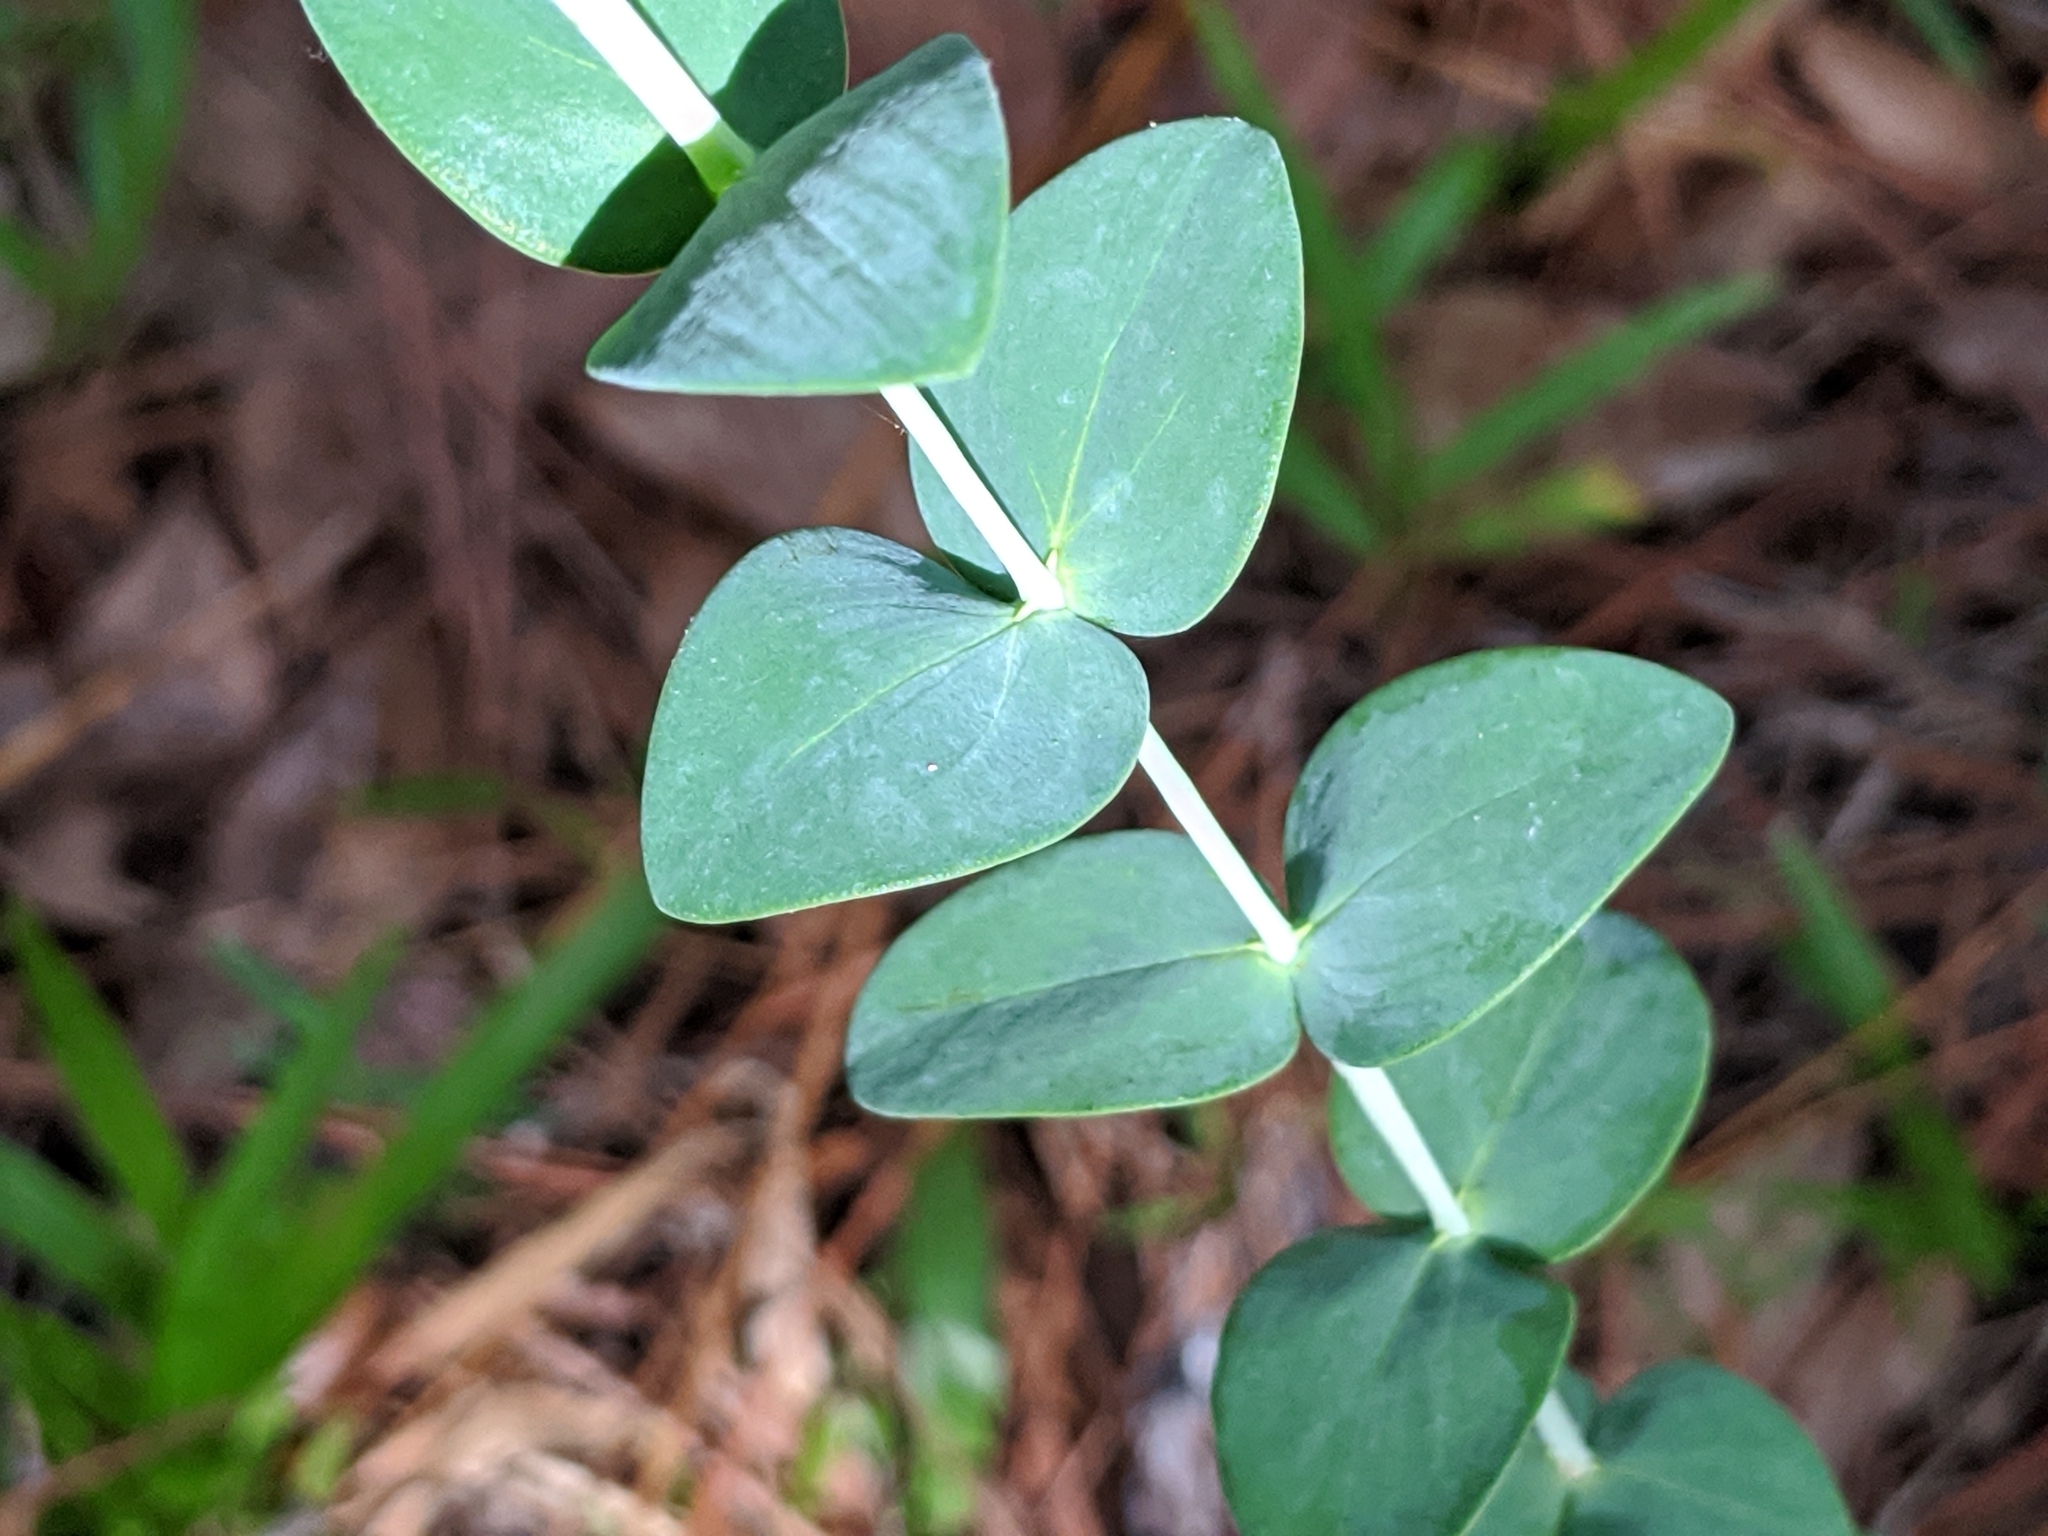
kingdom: Plantae
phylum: Tracheophyta
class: Magnoliopsida
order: Malpighiales
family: Hypericaceae
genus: Hypericum
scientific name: Hypericum tetrapetalum
